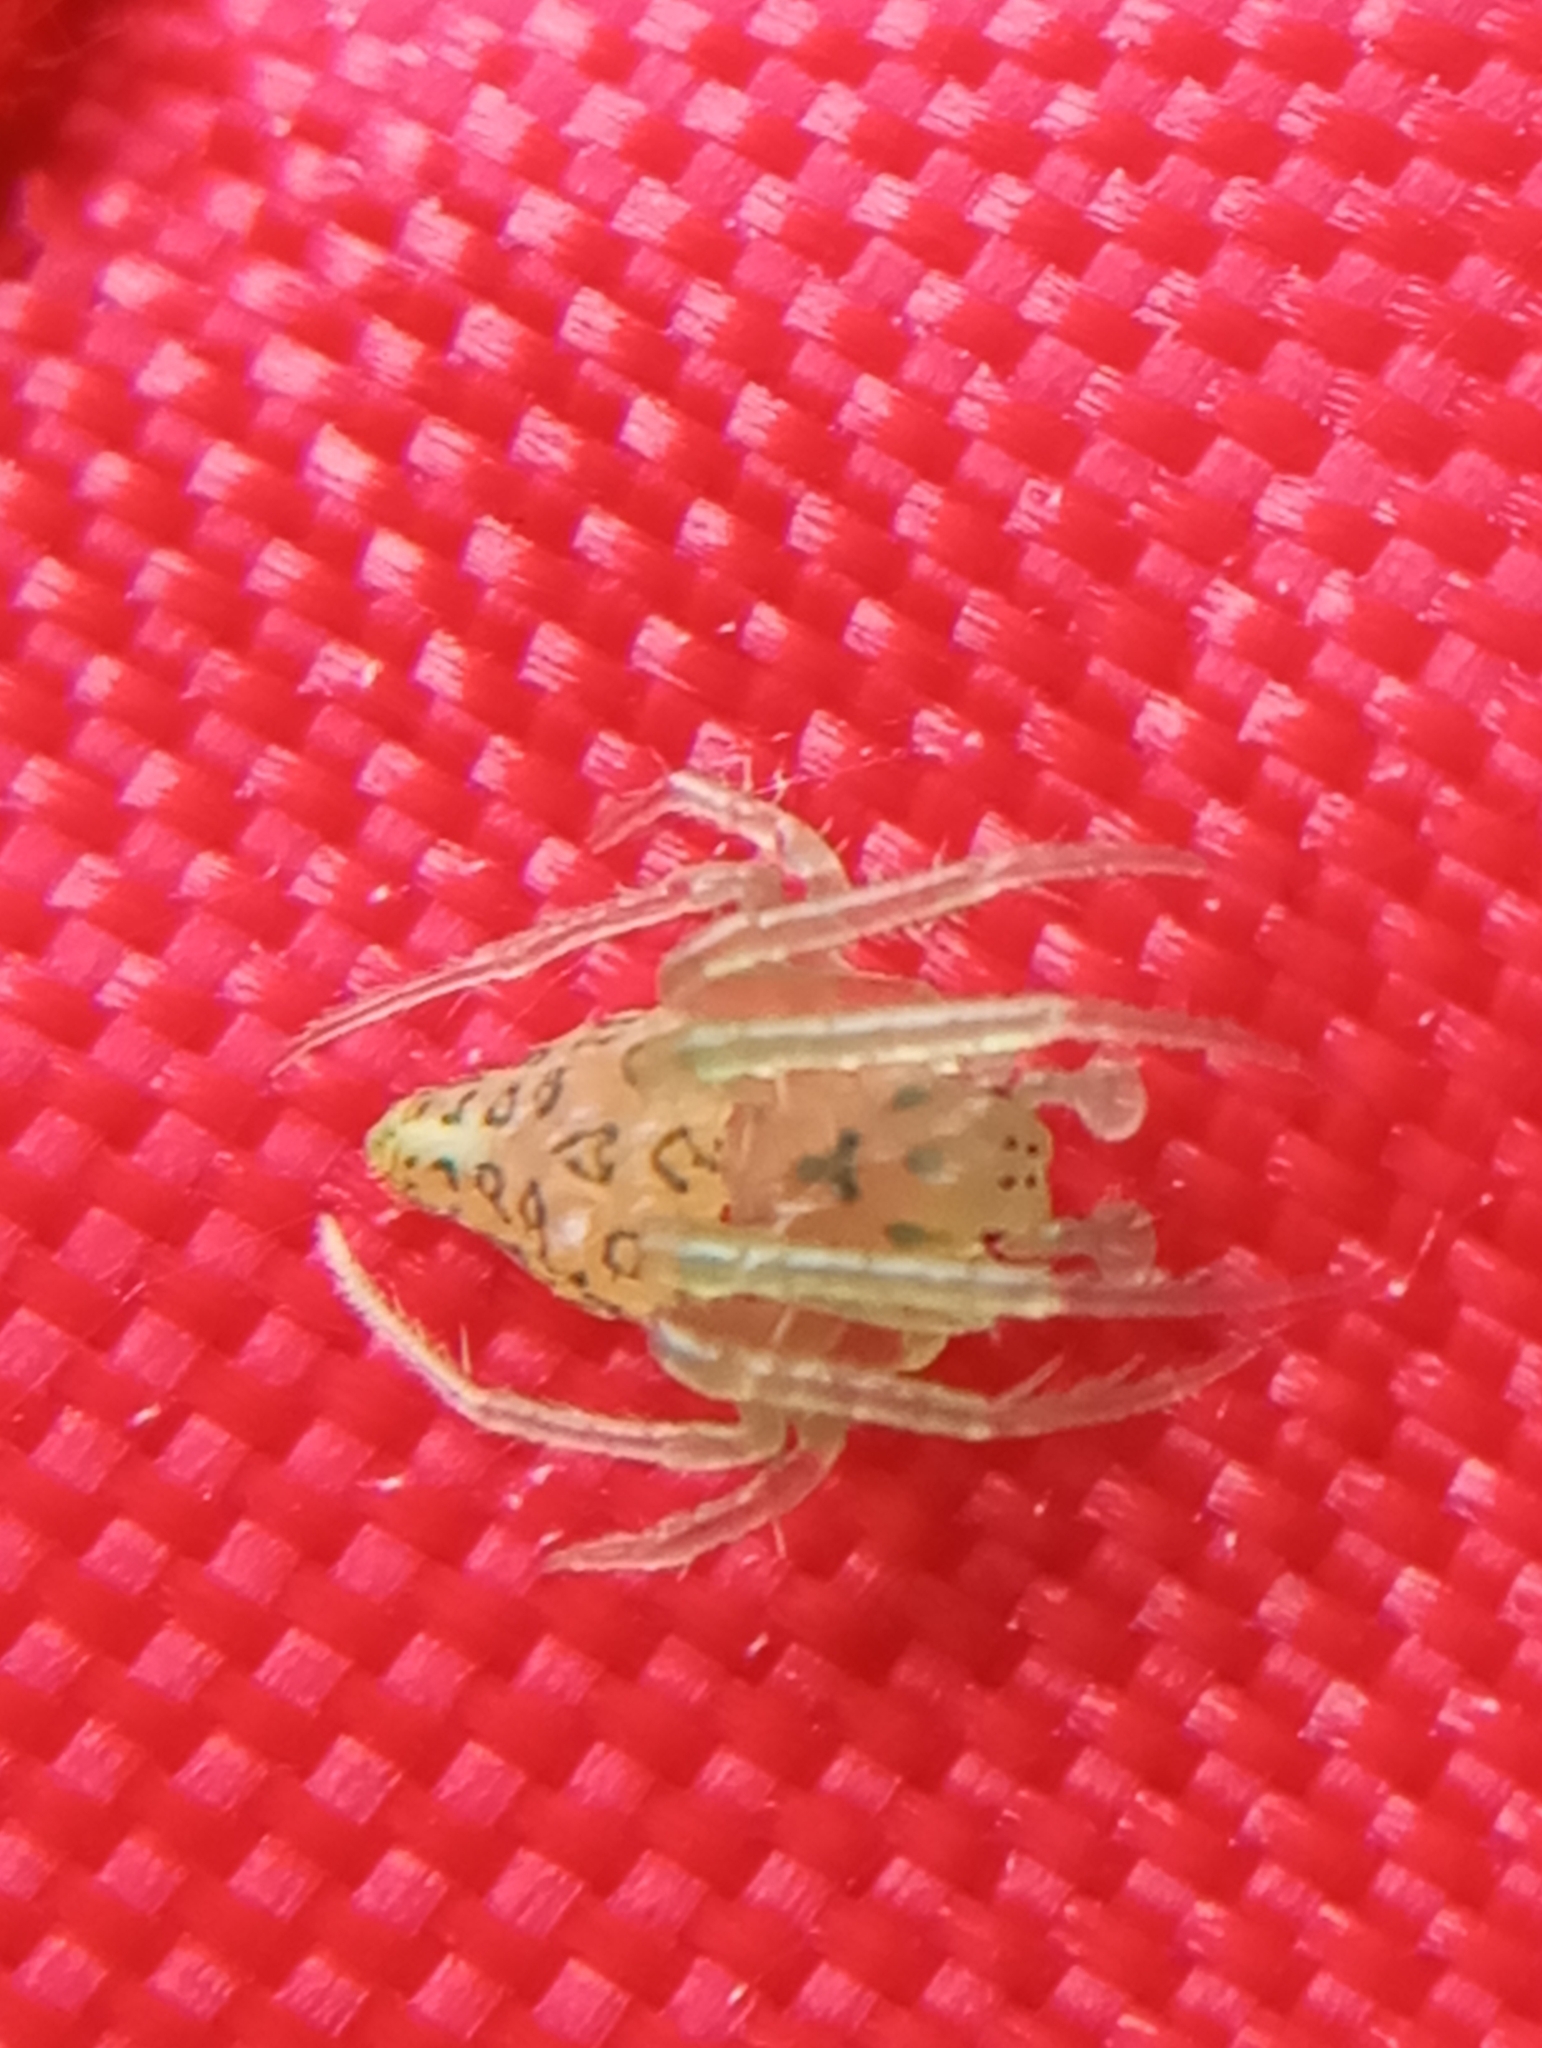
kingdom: Animalia
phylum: Arthropoda
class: Arachnida
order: Araneae
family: Araneidae
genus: Gnolus
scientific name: Gnolus cordiformis
